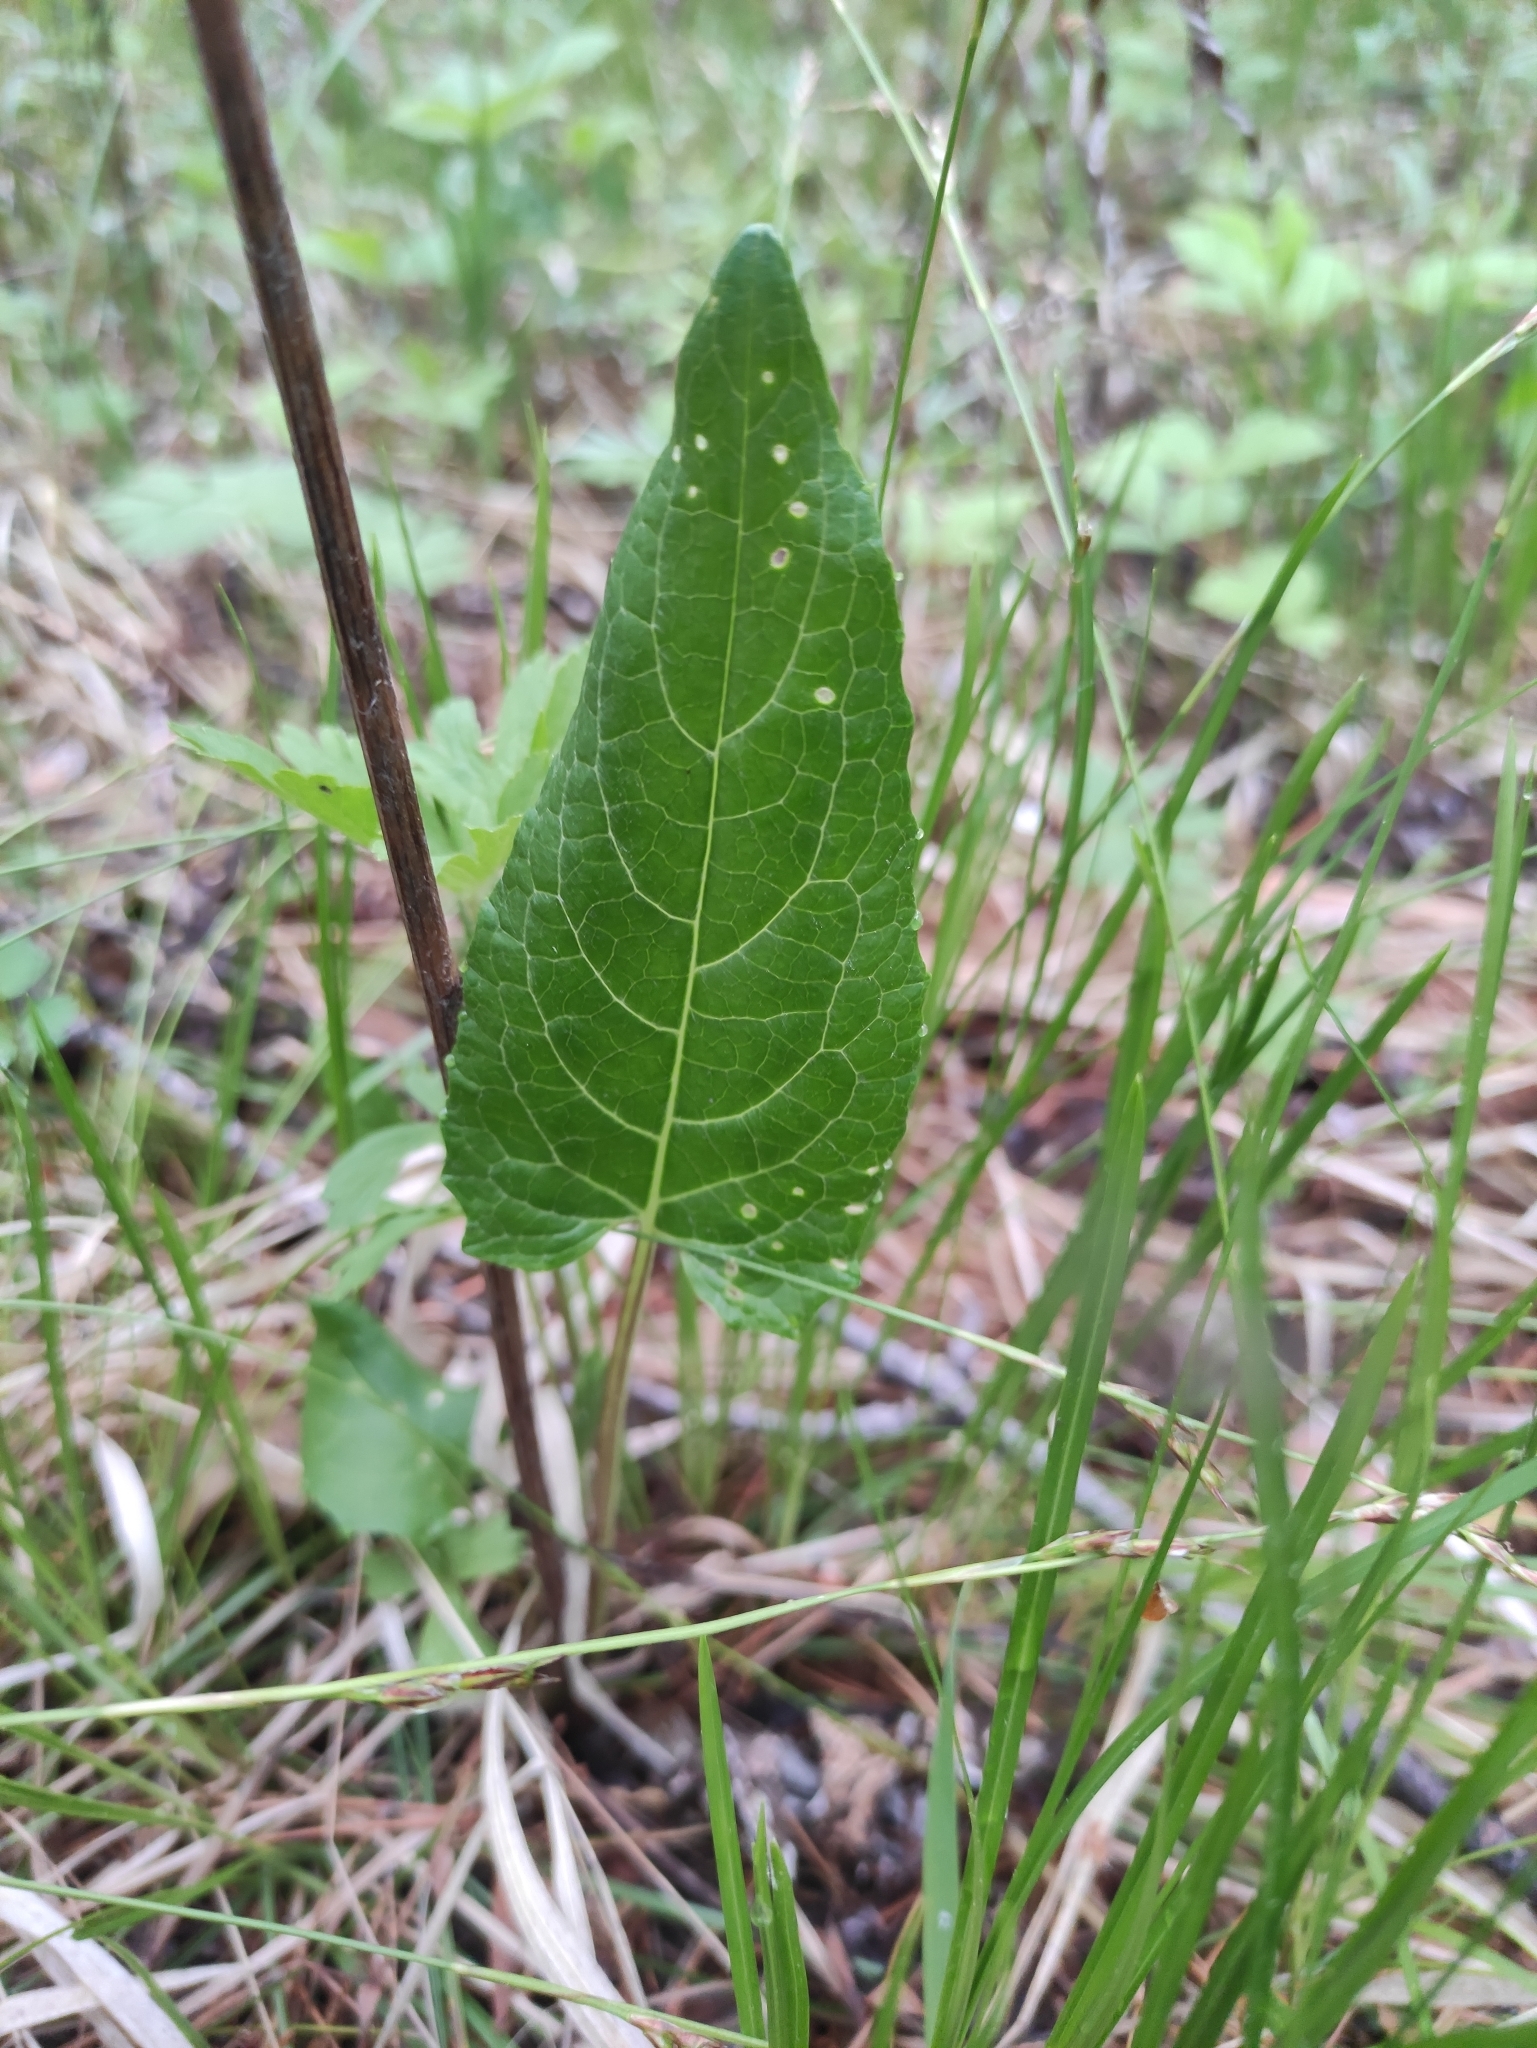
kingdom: Plantae
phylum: Tracheophyta
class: Magnoliopsida
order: Asterales
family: Asteraceae
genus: Saussurea
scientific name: Saussurea controversa
